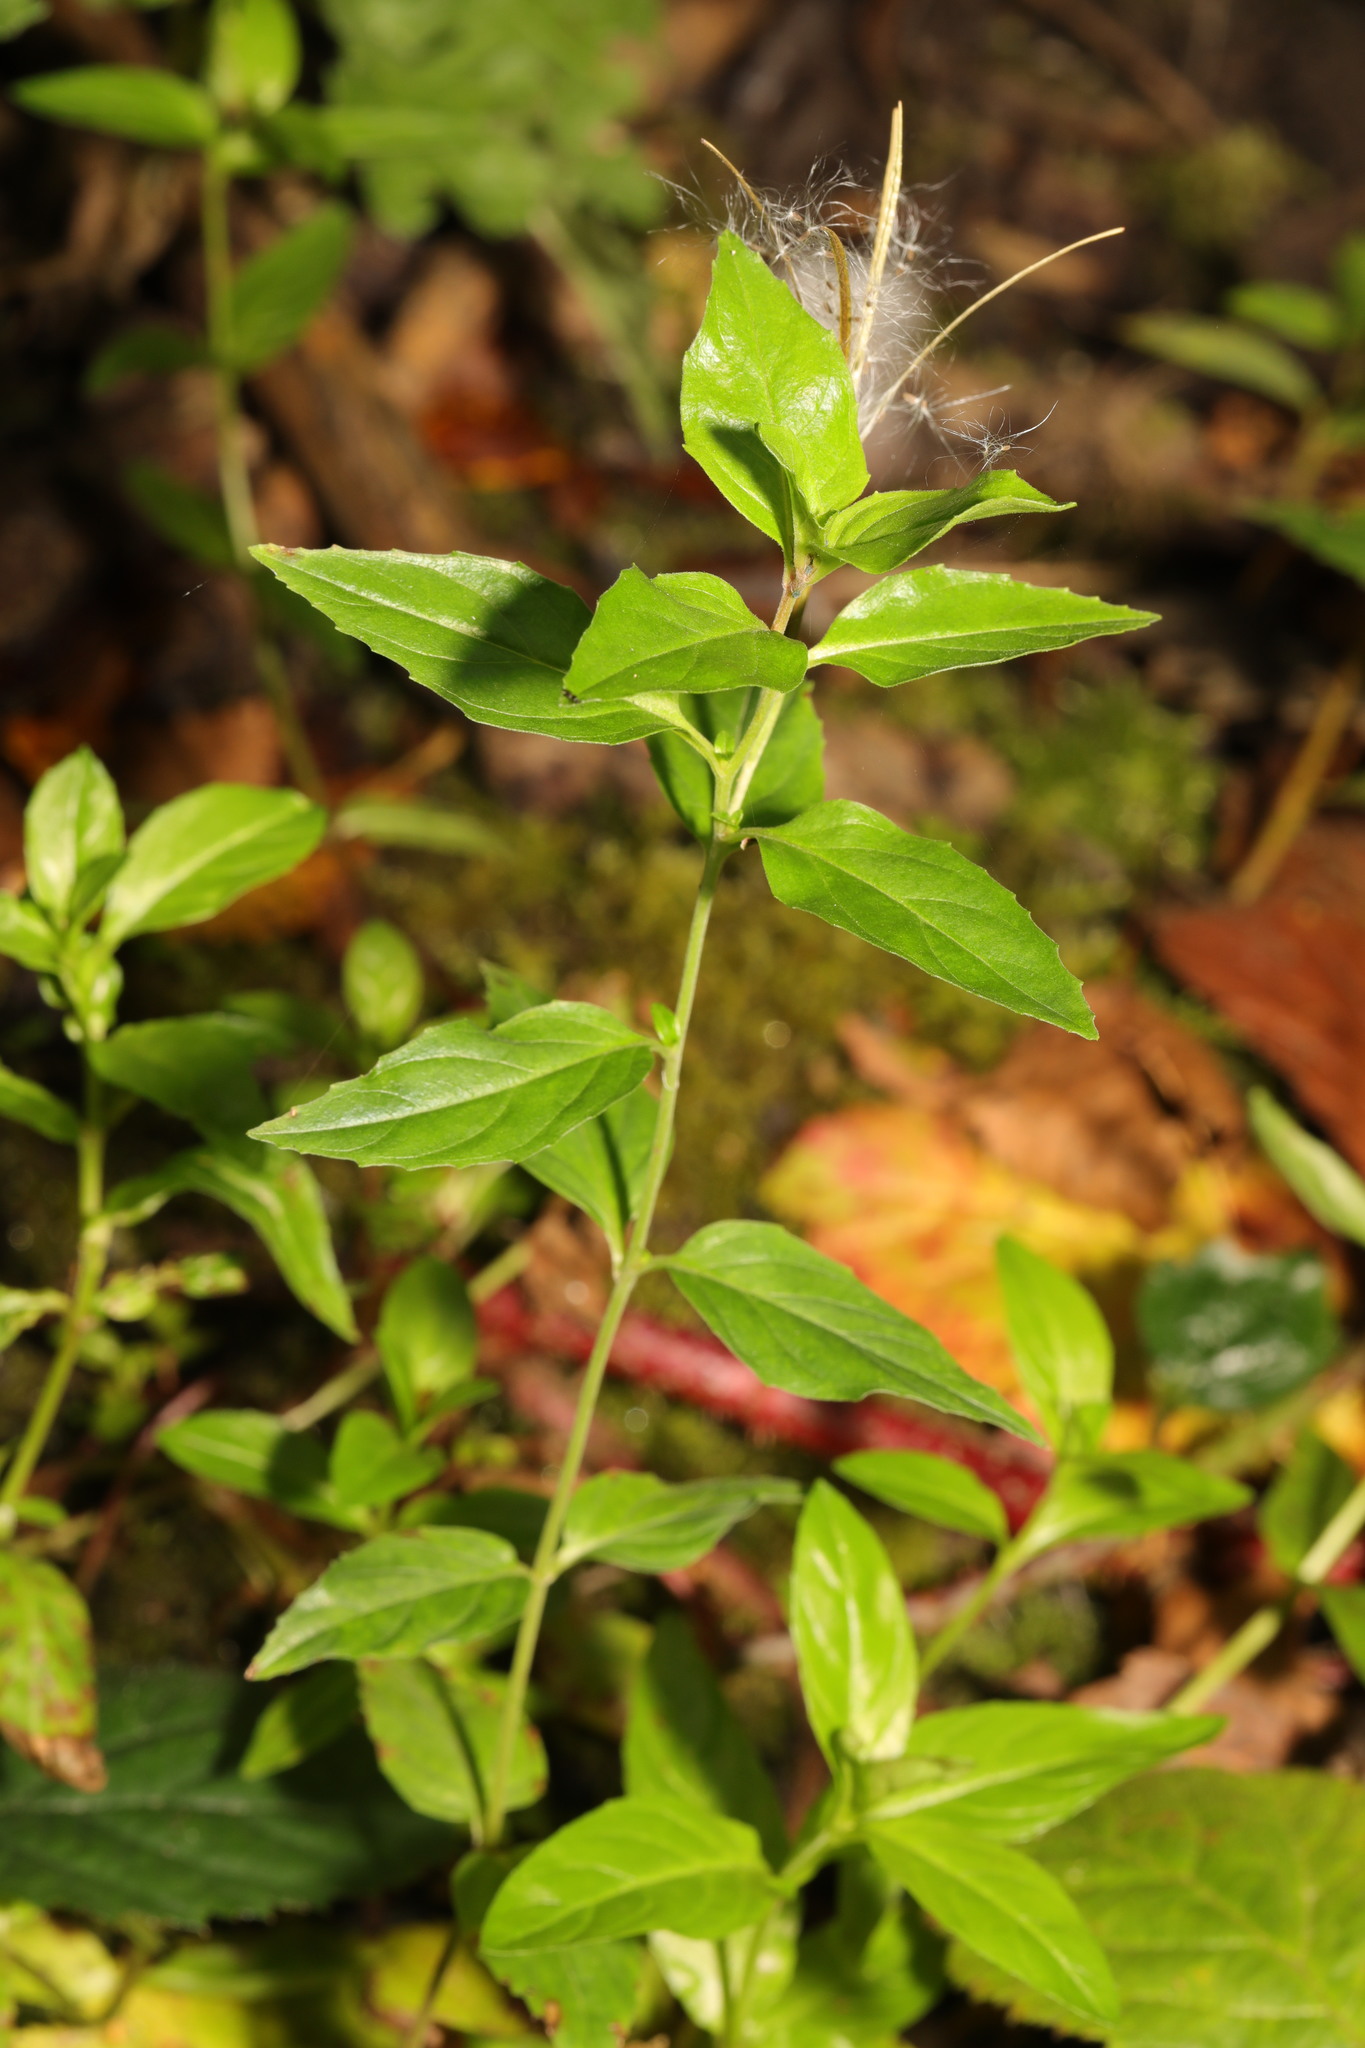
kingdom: Plantae
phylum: Tracheophyta
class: Magnoliopsida
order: Myrtales
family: Onagraceae
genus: Epilobium
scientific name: Epilobium montanum
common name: Broad-leaved willowherb
